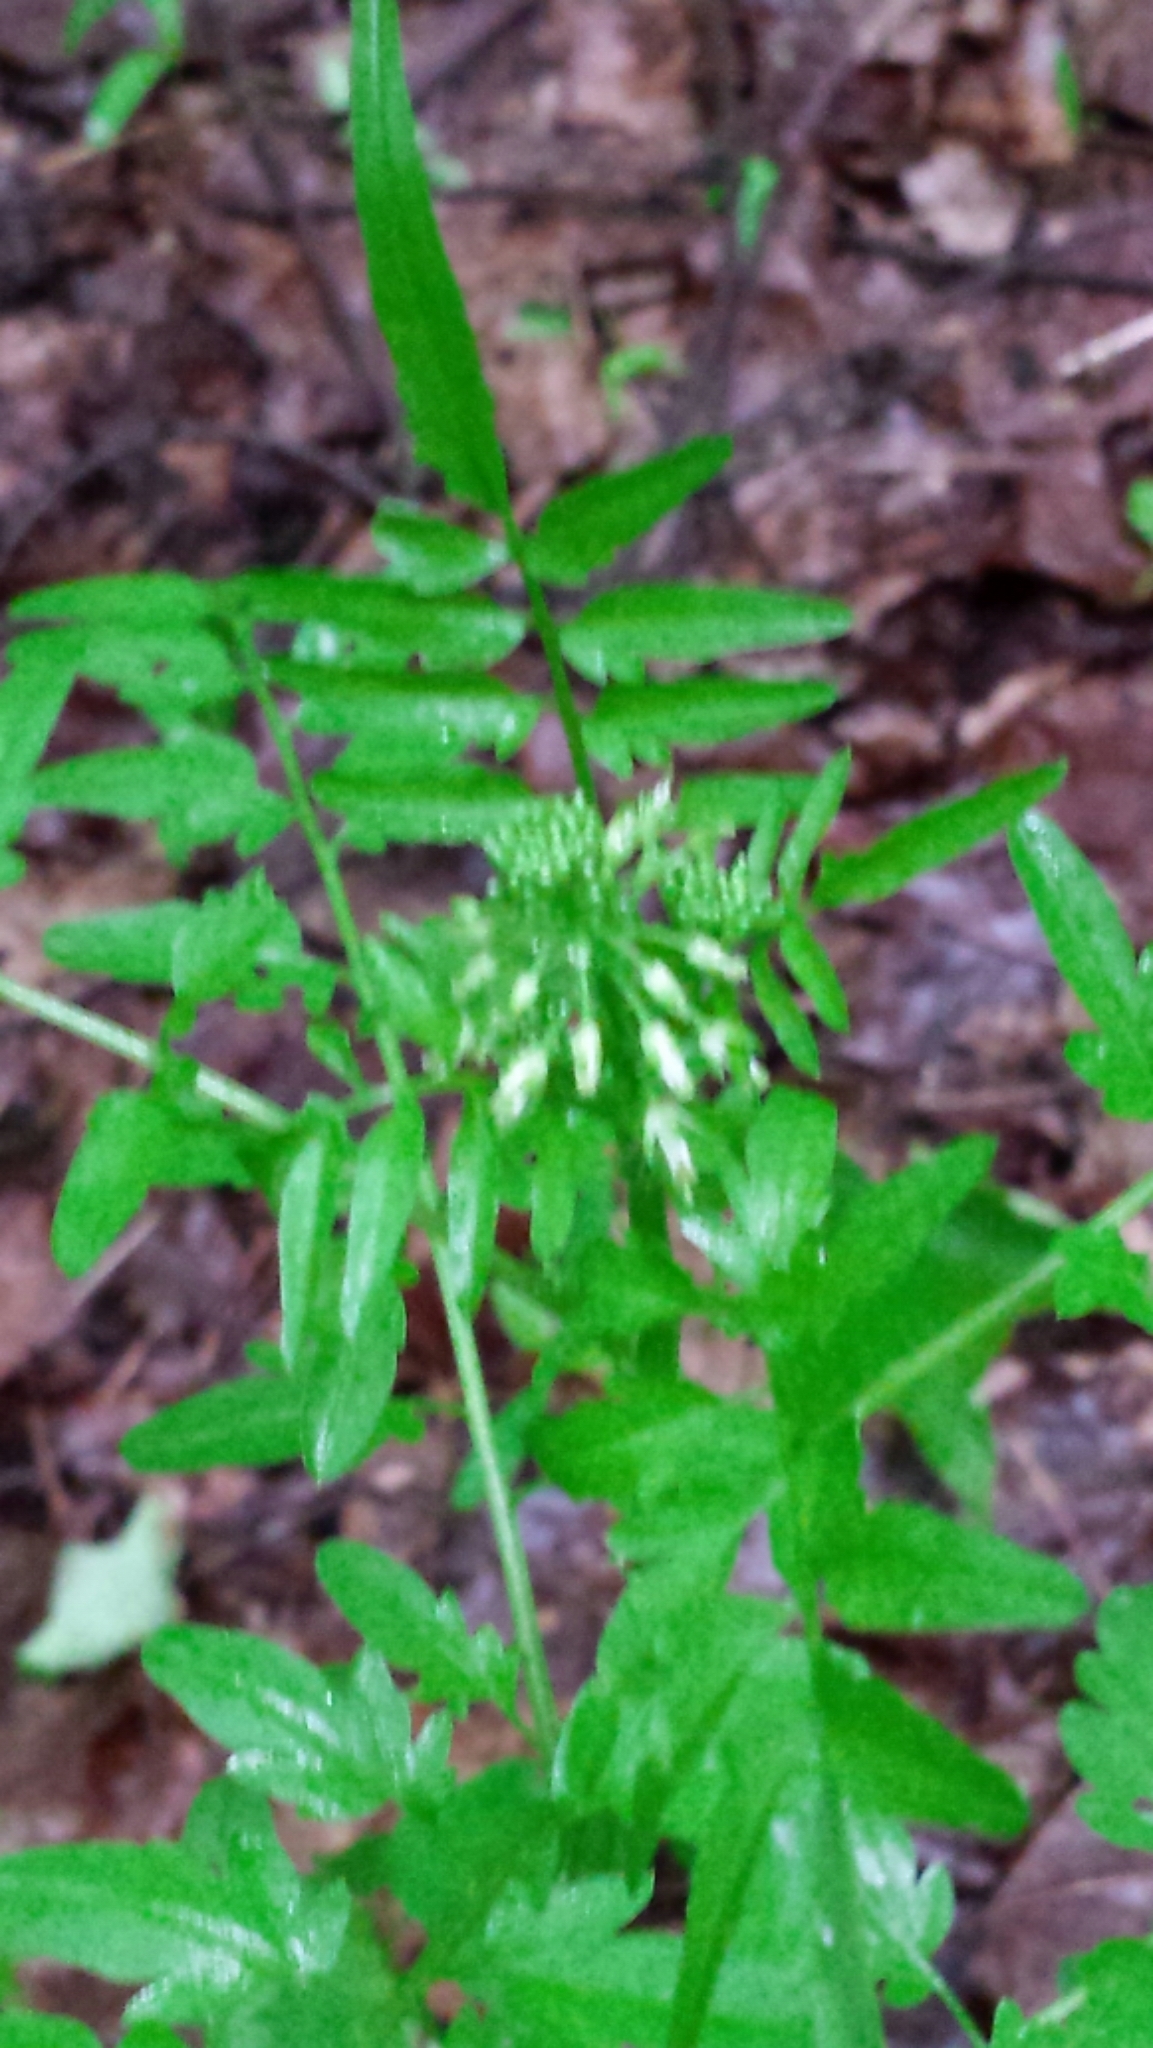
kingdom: Plantae
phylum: Tracheophyta
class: Magnoliopsida
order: Brassicales
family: Brassicaceae
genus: Cardamine
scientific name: Cardamine impatiens
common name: Narrow-leaved bitter-cress
